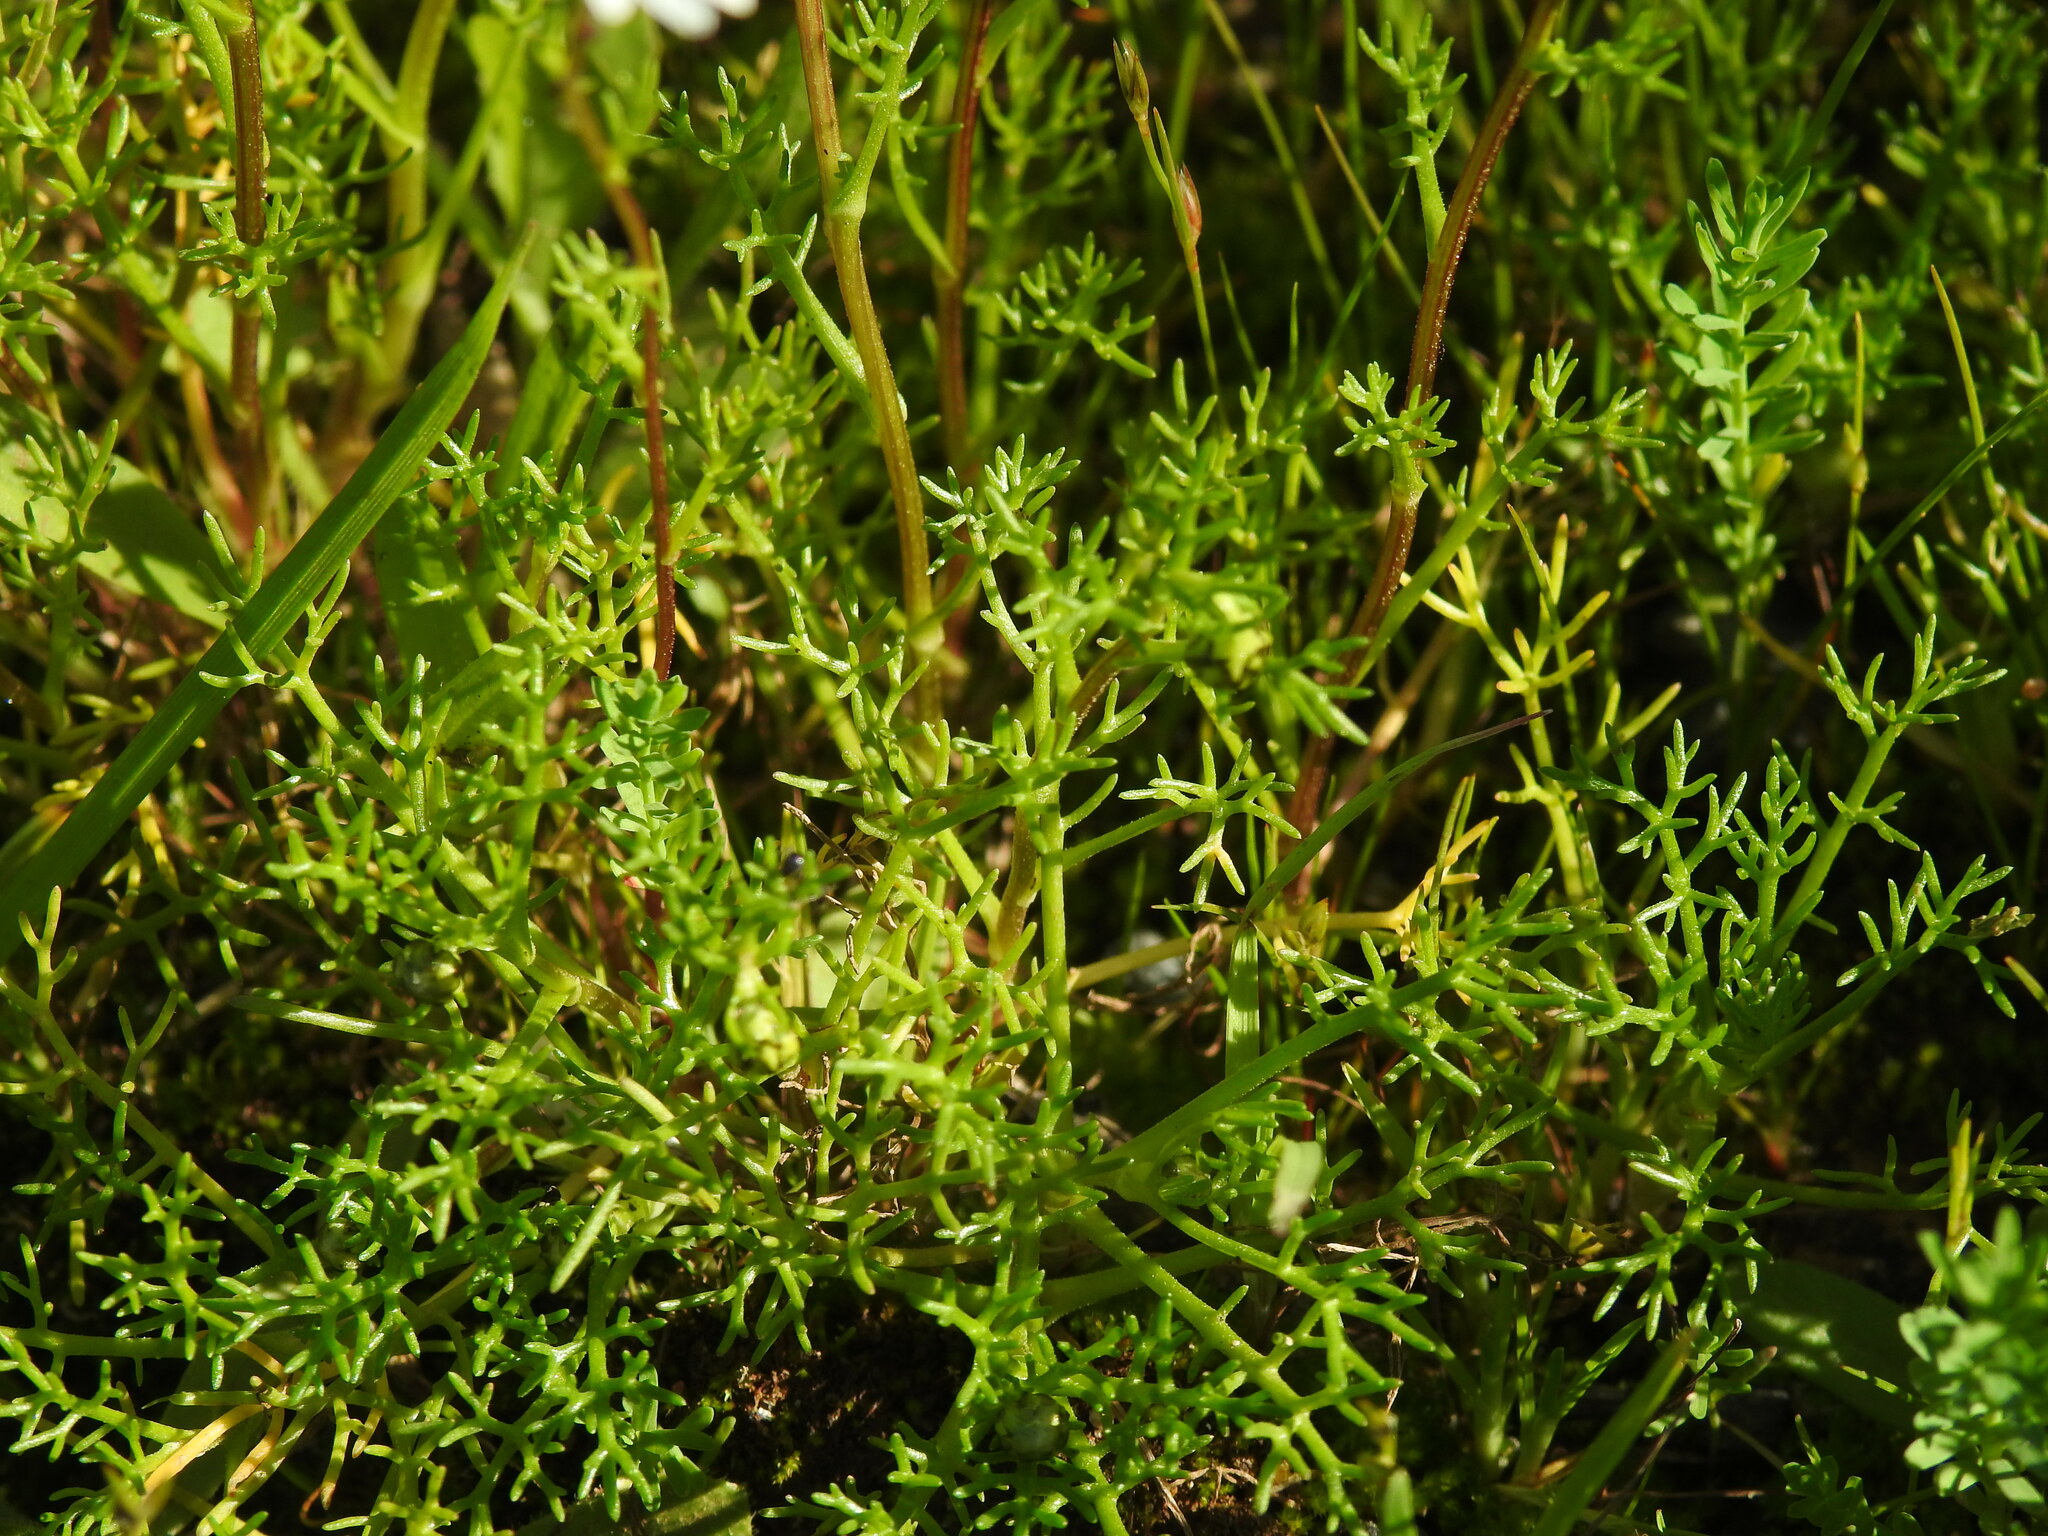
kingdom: Plantae
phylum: Tracheophyta
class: Magnoliopsida
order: Asterales
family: Asteraceae
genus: Chamaemelum
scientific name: Chamaemelum fuscatum
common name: Chamomile
